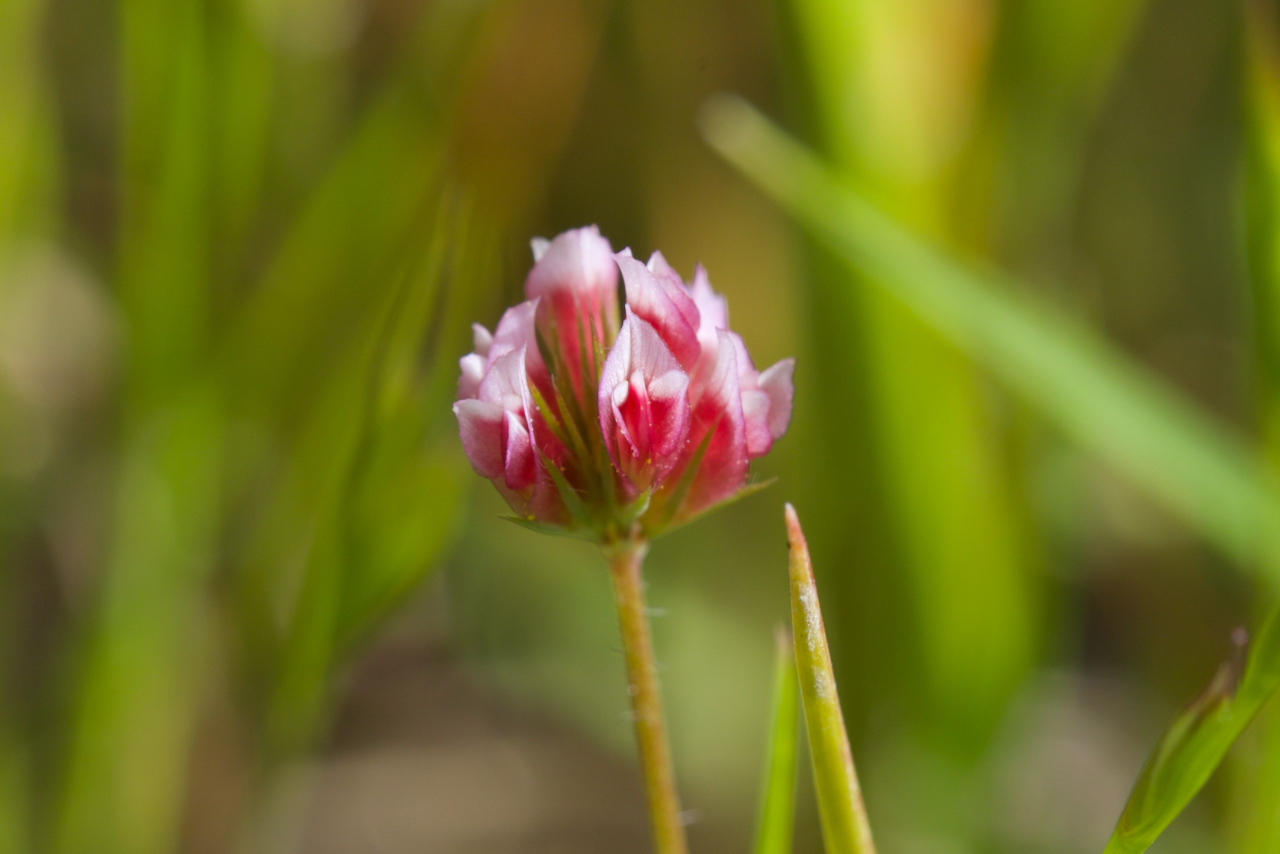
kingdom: Plantae
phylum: Tracheophyta
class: Magnoliopsida
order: Fabales
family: Fabaceae
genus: Trifolium
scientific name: Trifolium bifidum
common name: Notch-leaf clover
